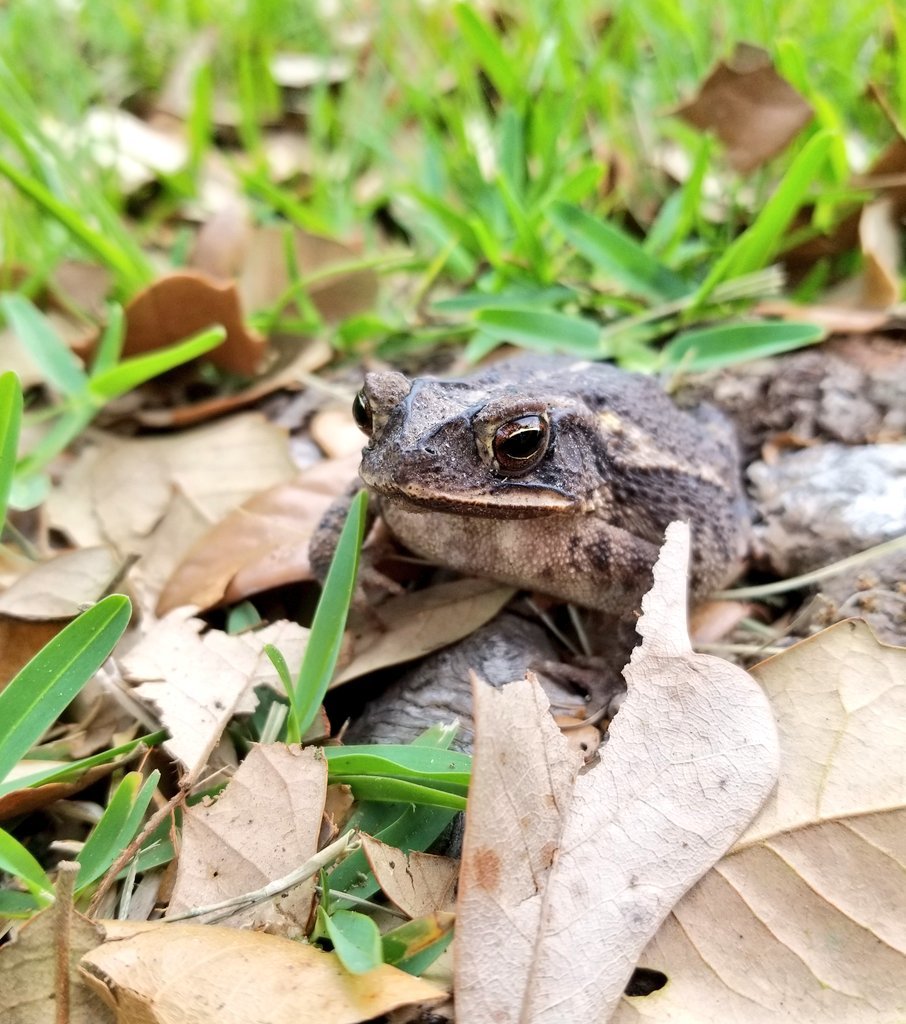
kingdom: Animalia
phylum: Chordata
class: Amphibia
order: Anura
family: Bufonidae
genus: Incilius
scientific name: Incilius nebulifer
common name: Gulf coast toad
